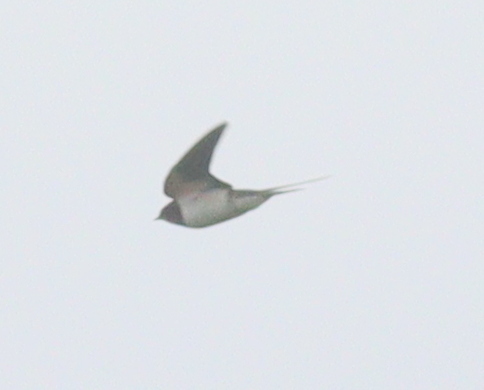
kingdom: Animalia
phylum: Chordata
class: Aves
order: Passeriformes
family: Hirundinidae
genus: Hirundo
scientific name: Hirundo rustica
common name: Barn swallow
